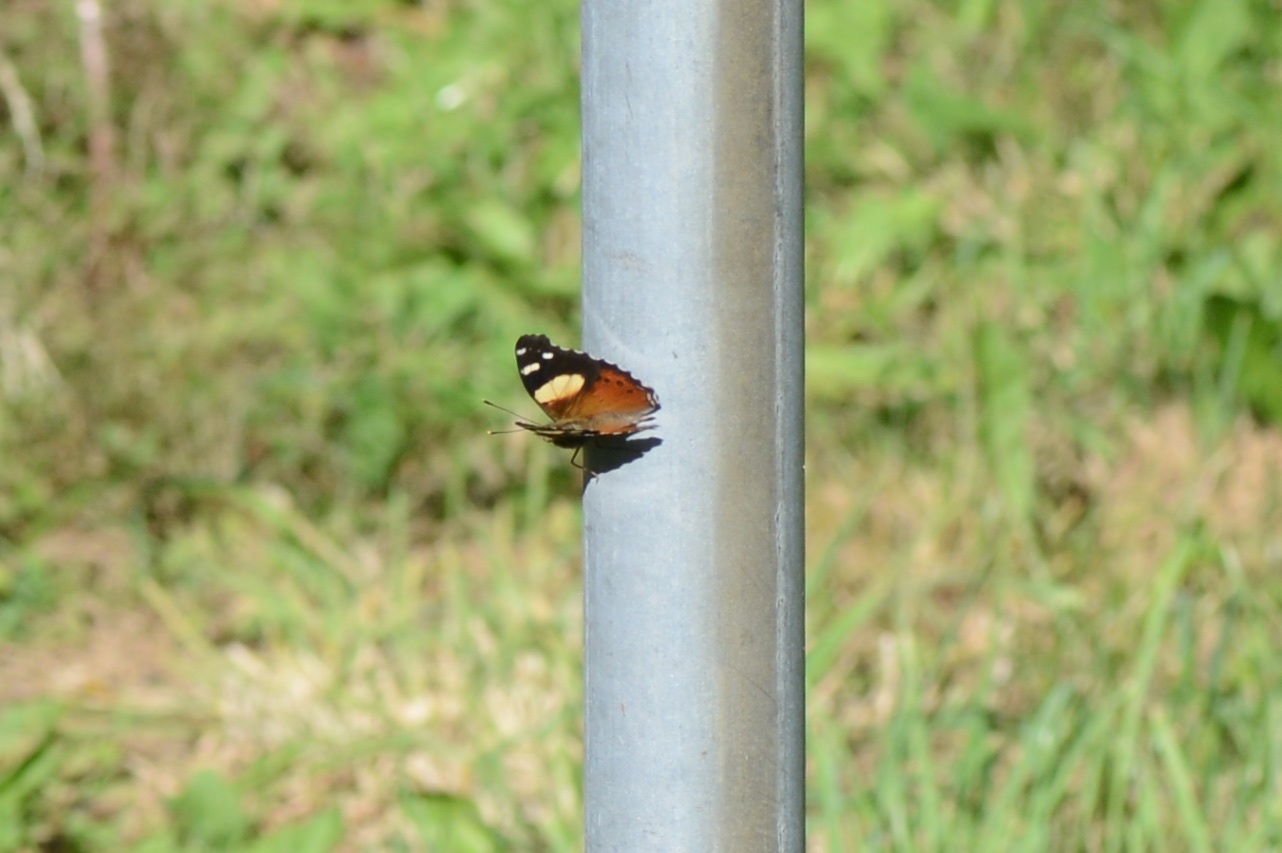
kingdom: Animalia
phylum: Arthropoda
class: Insecta
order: Lepidoptera
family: Nymphalidae
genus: Vanessa
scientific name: Vanessa itea
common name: Yellow admiral
